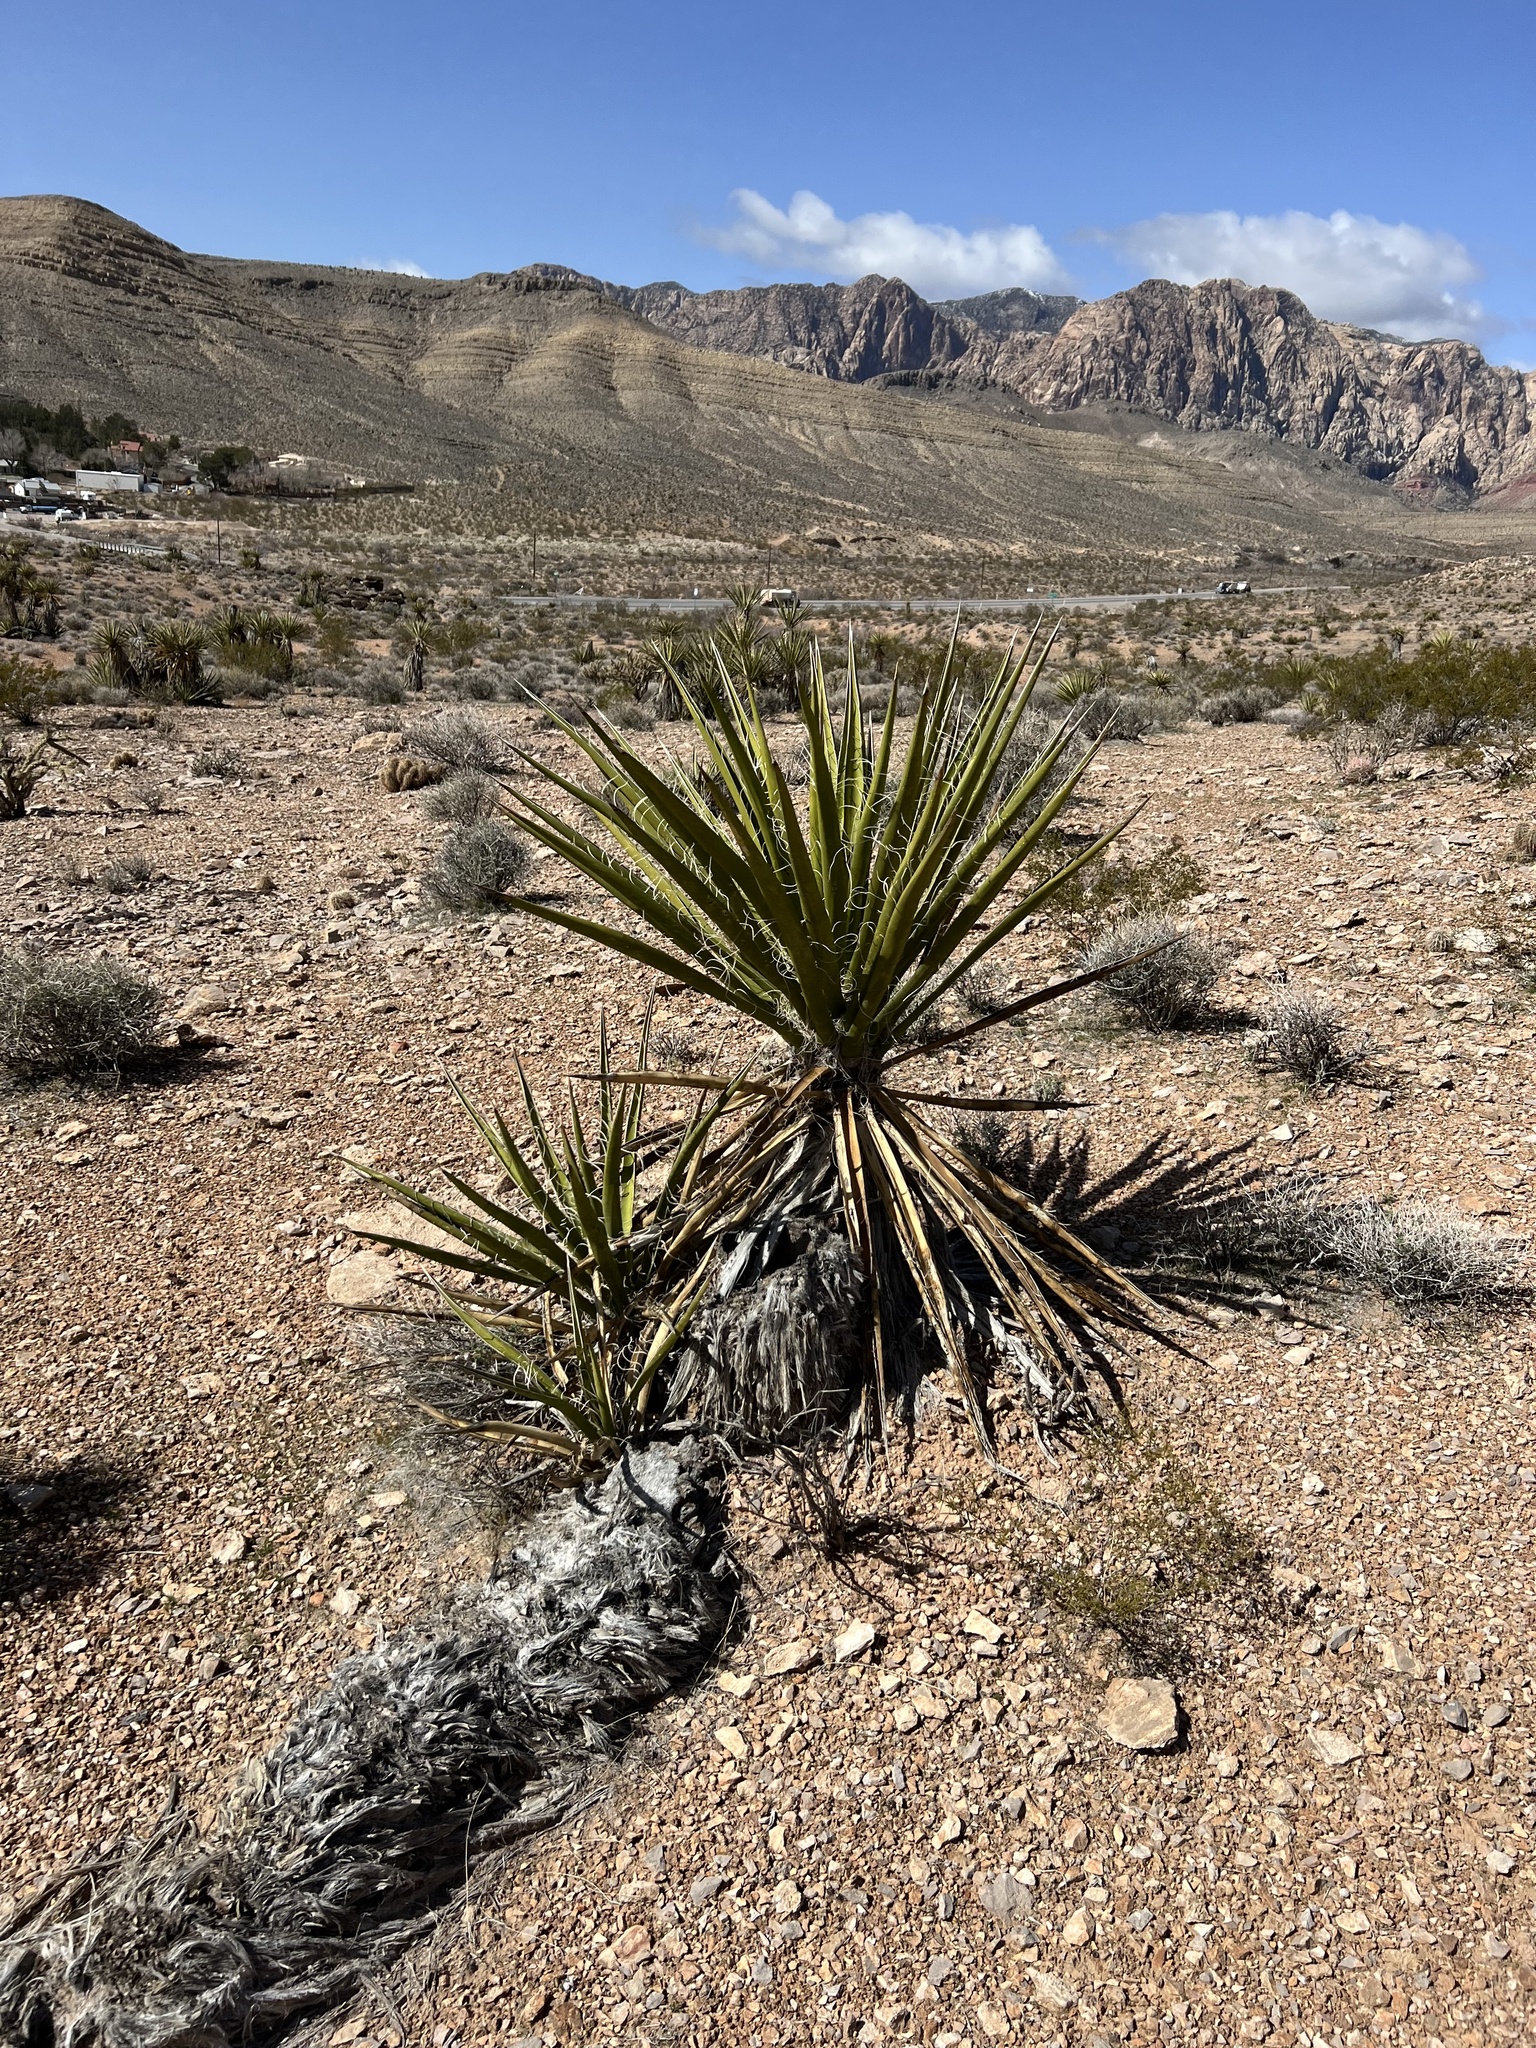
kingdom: Plantae
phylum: Tracheophyta
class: Liliopsida
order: Asparagales
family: Asparagaceae
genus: Yucca
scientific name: Yucca schidigera
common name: Mojave yucca
